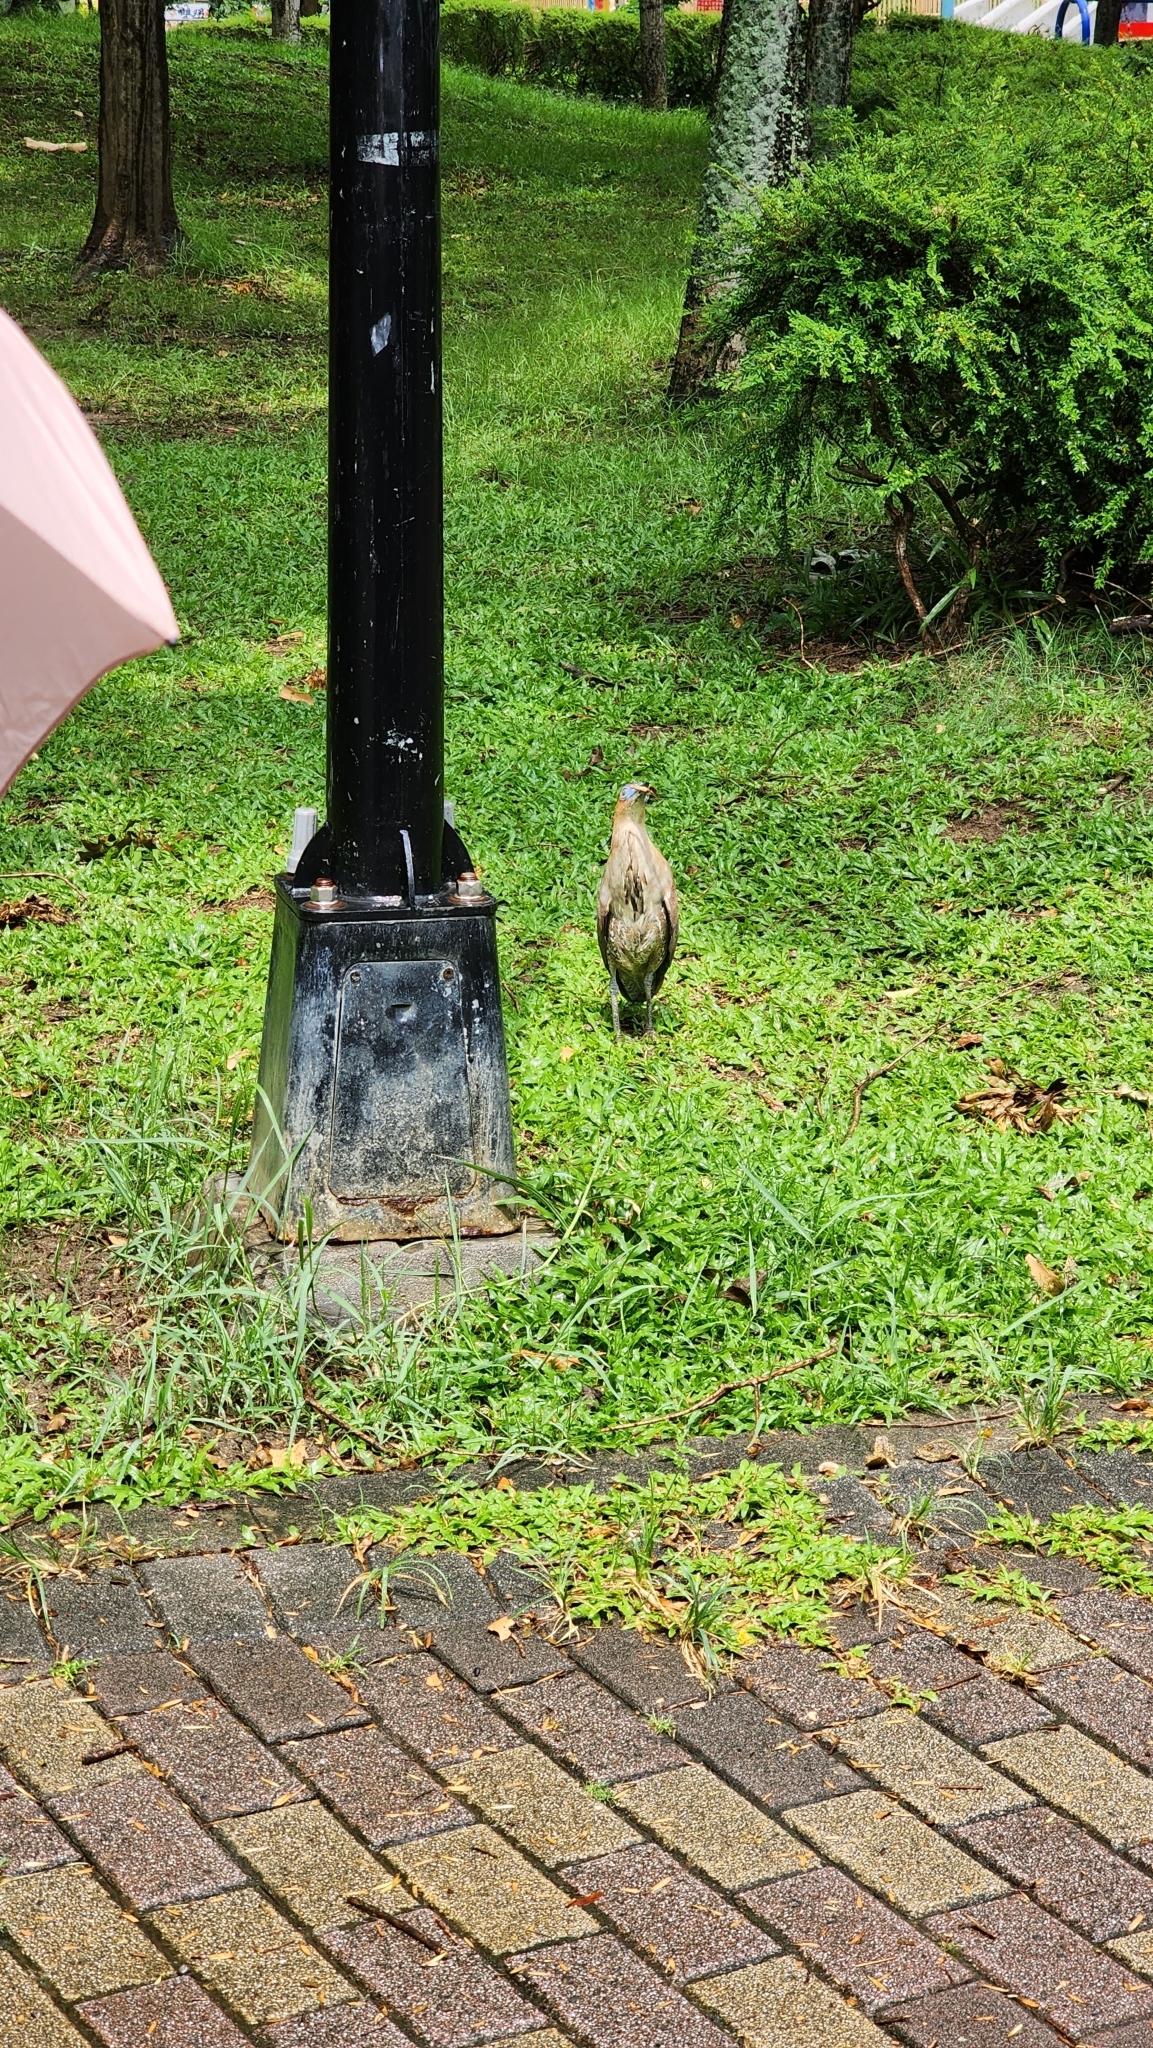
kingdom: Animalia
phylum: Chordata
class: Aves
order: Pelecaniformes
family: Ardeidae
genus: Gorsachius
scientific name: Gorsachius melanolophus
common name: Malayan night heron
